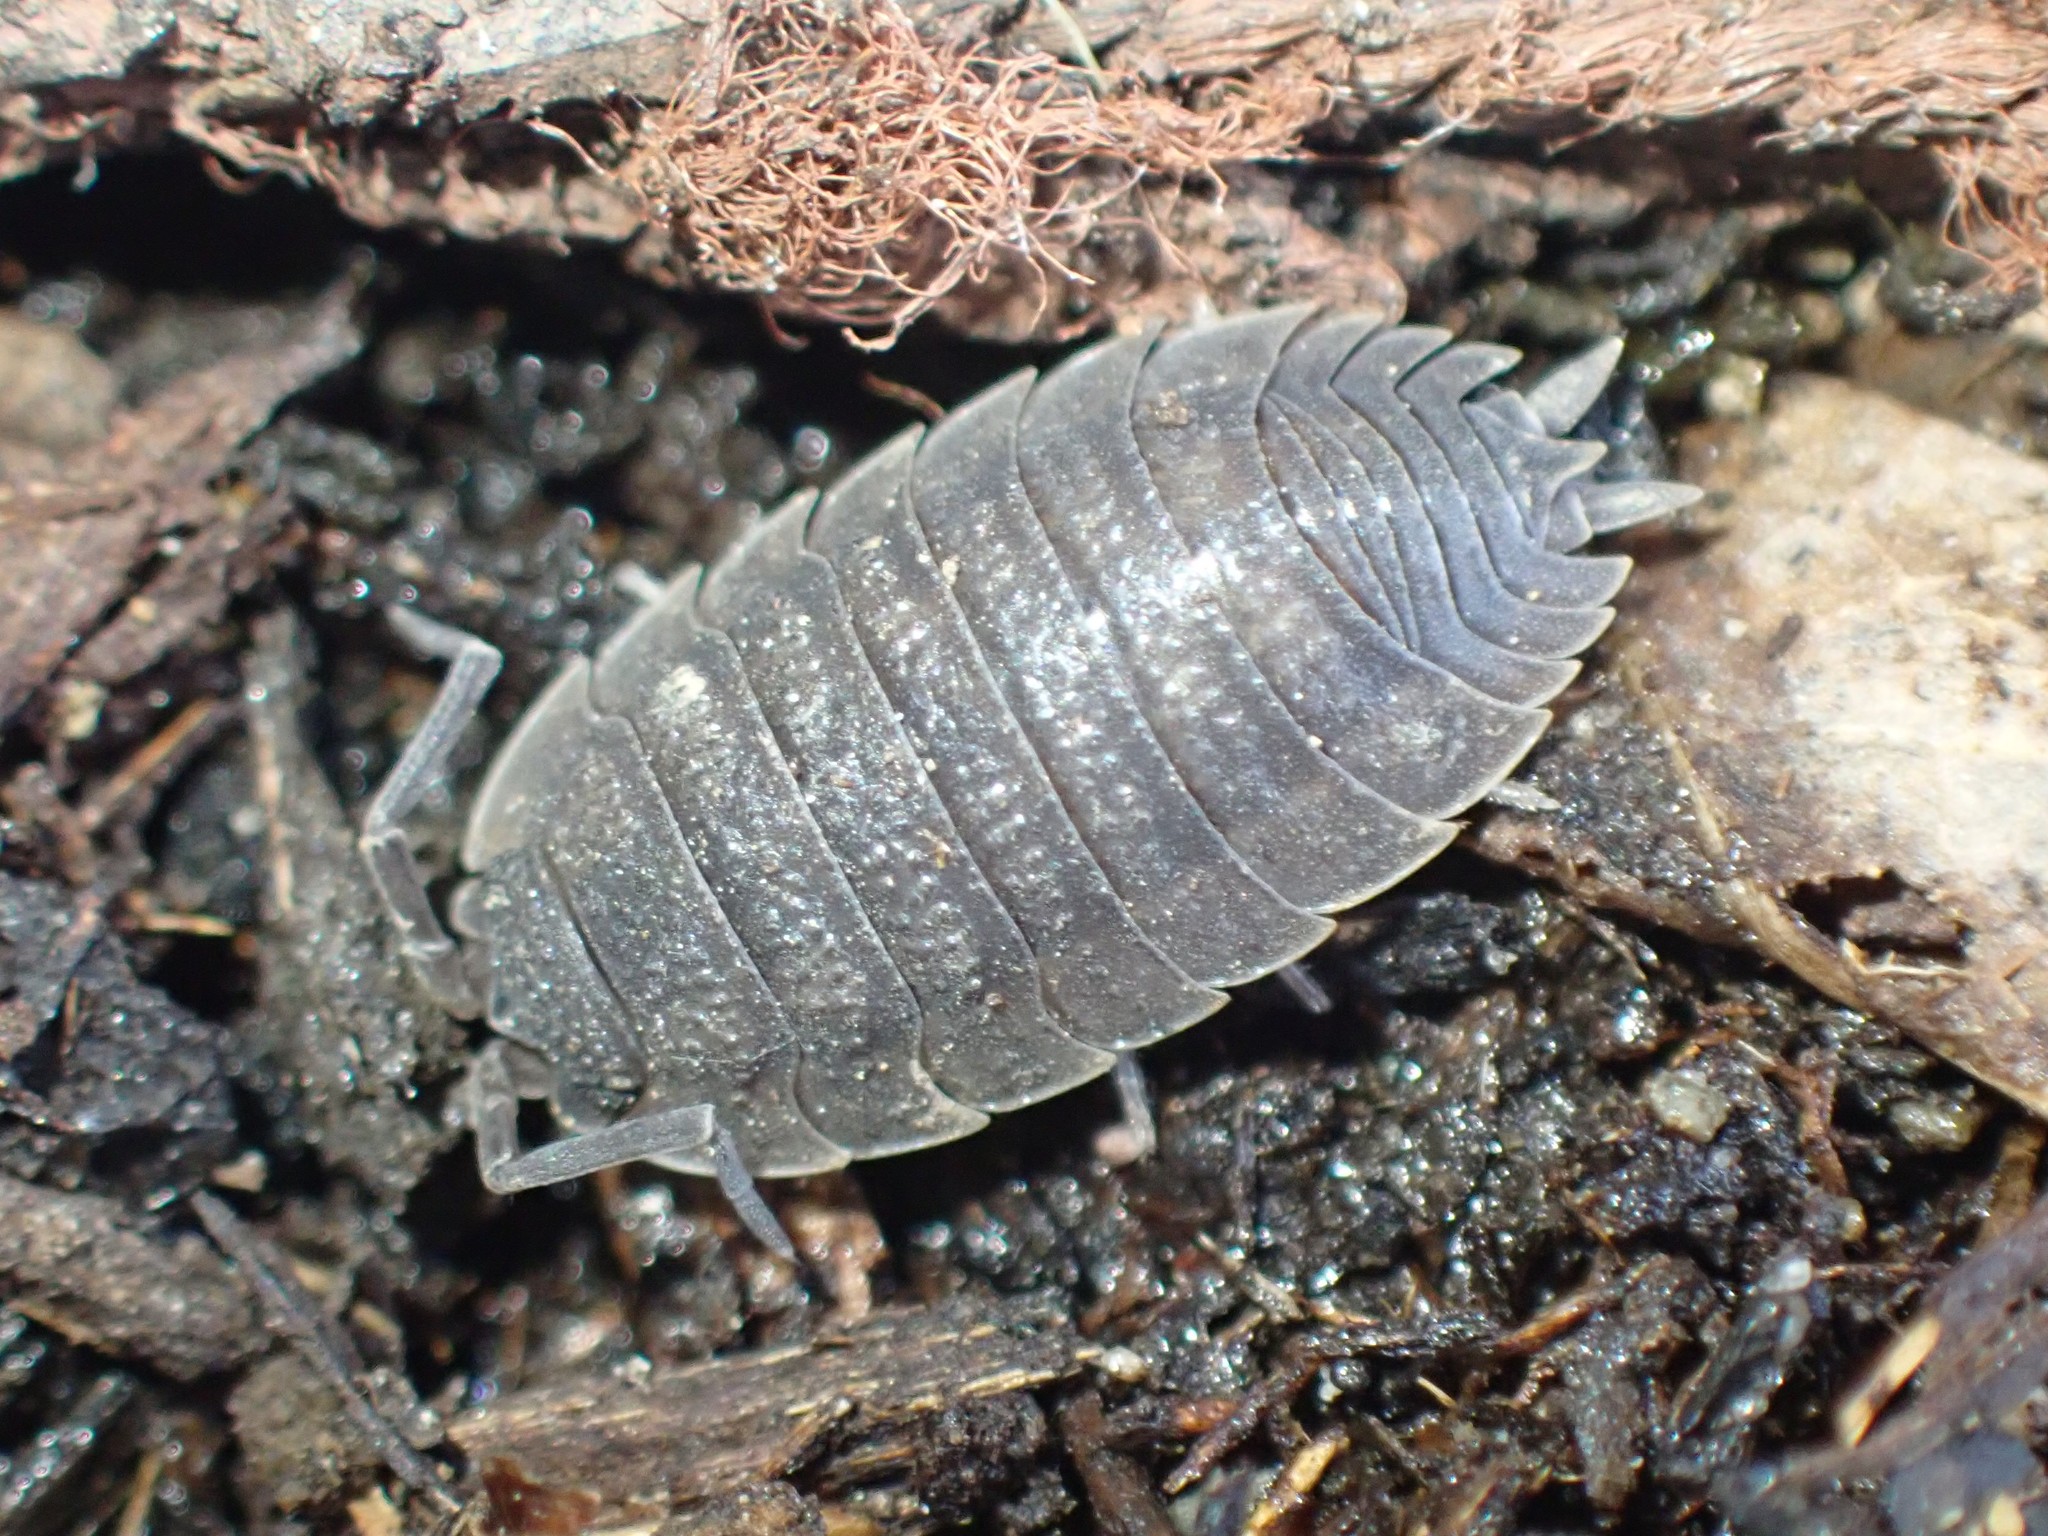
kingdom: Animalia
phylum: Arthropoda
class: Malacostraca
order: Isopoda
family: Porcellionidae
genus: Porcellio
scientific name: Porcellio scaber
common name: Common rough woodlouse
